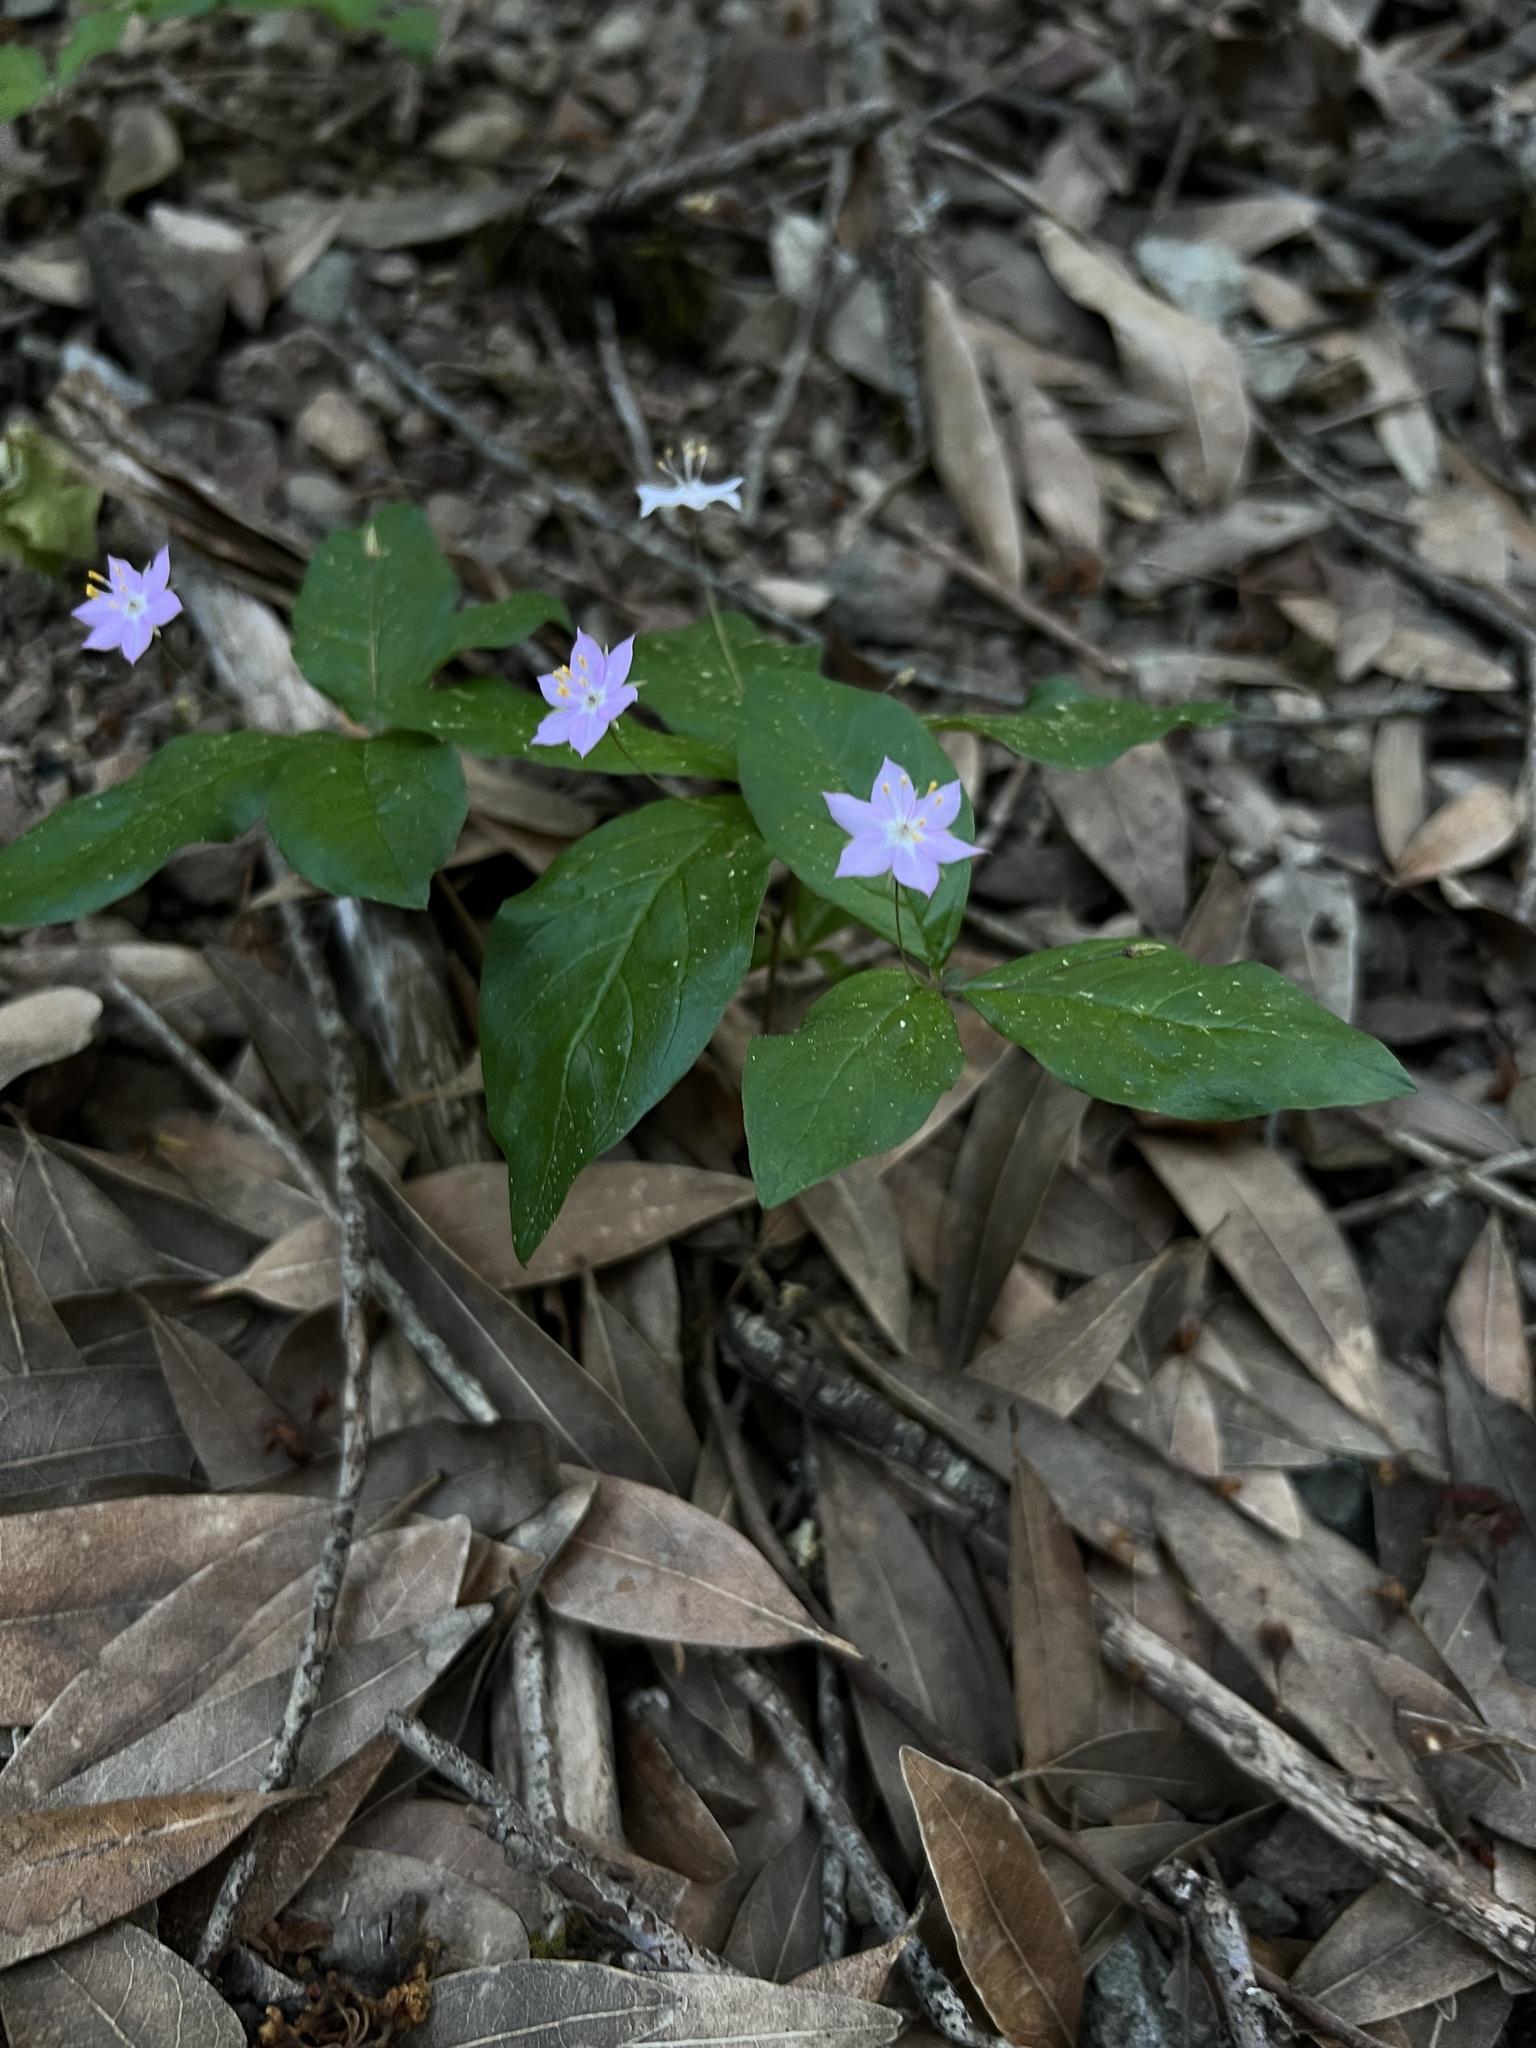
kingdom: Plantae
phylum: Tracheophyta
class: Magnoliopsida
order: Ericales
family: Primulaceae
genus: Lysimachia
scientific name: Lysimachia latifolia
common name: Pacific starflower
